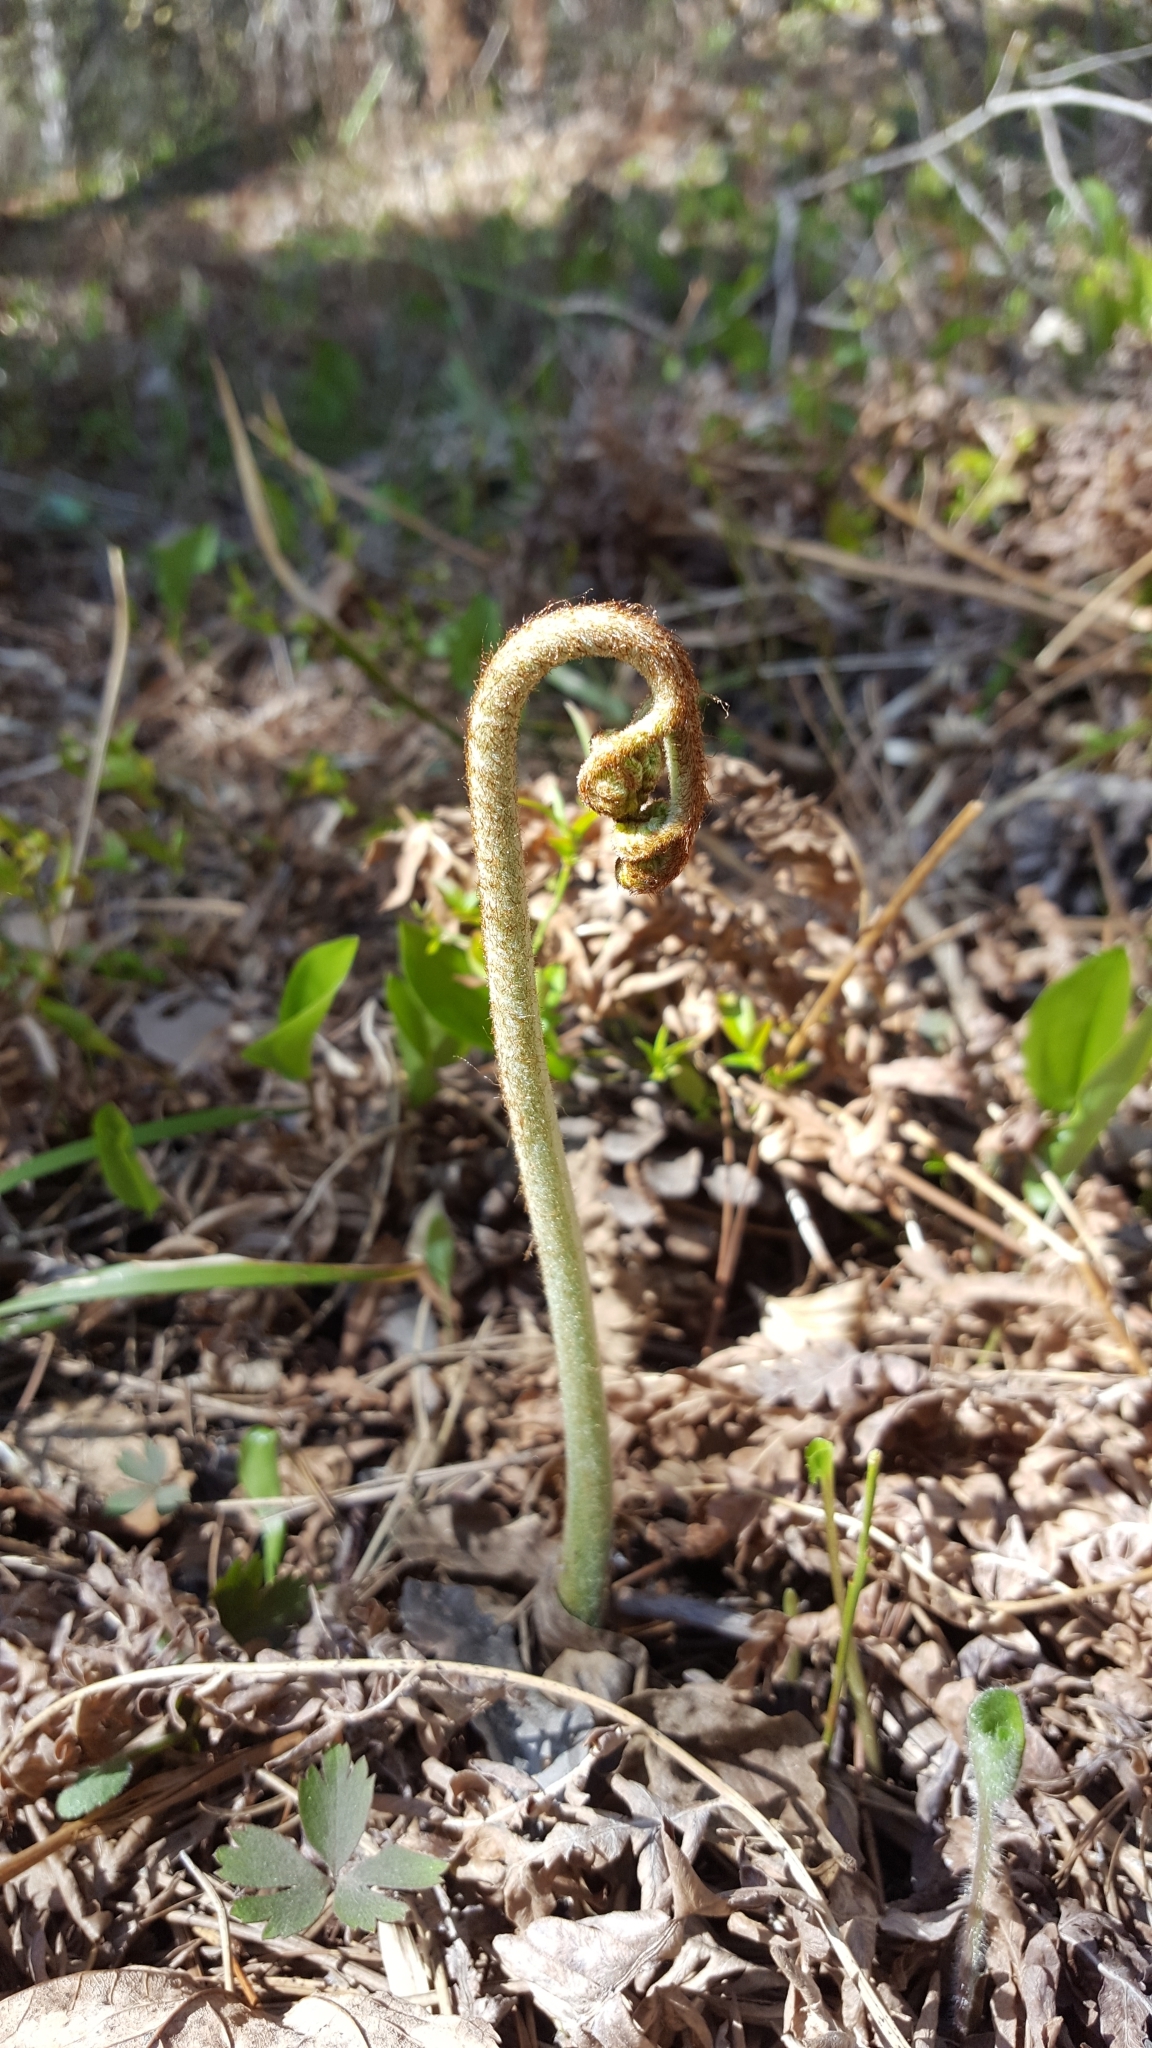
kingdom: Plantae
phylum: Tracheophyta
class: Polypodiopsida
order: Polypodiales
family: Dennstaedtiaceae
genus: Pteridium
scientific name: Pteridium aquilinum
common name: Bracken
